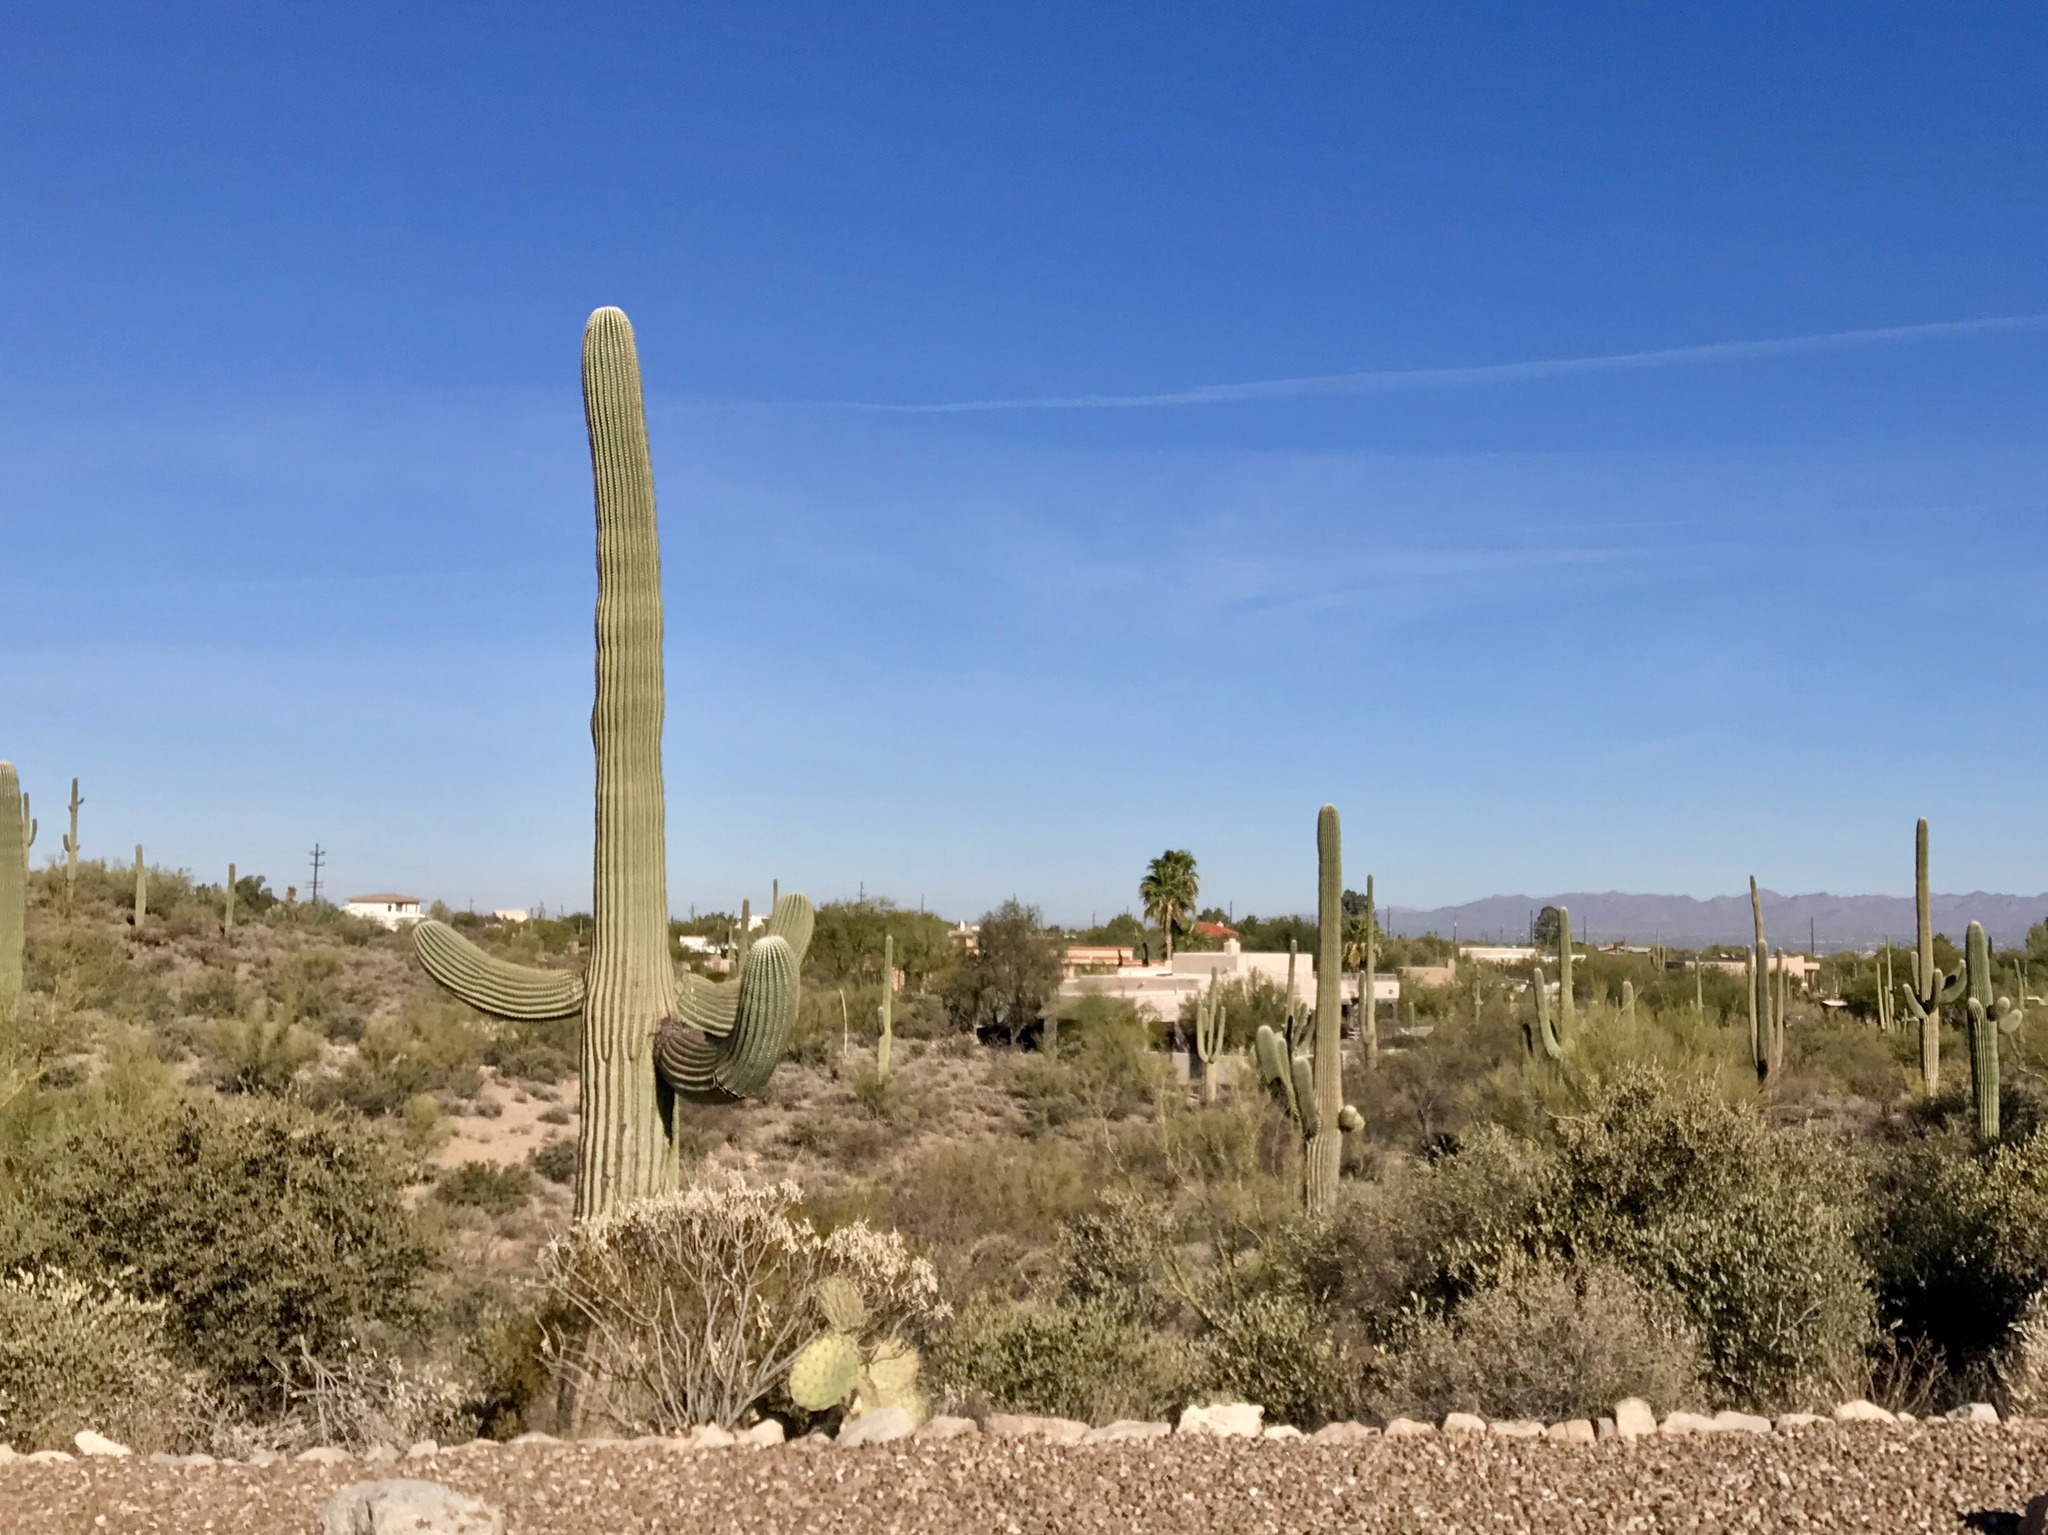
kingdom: Plantae
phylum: Tracheophyta
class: Magnoliopsida
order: Caryophyllales
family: Cactaceae
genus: Carnegiea
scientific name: Carnegiea gigantea
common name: Saguaro
